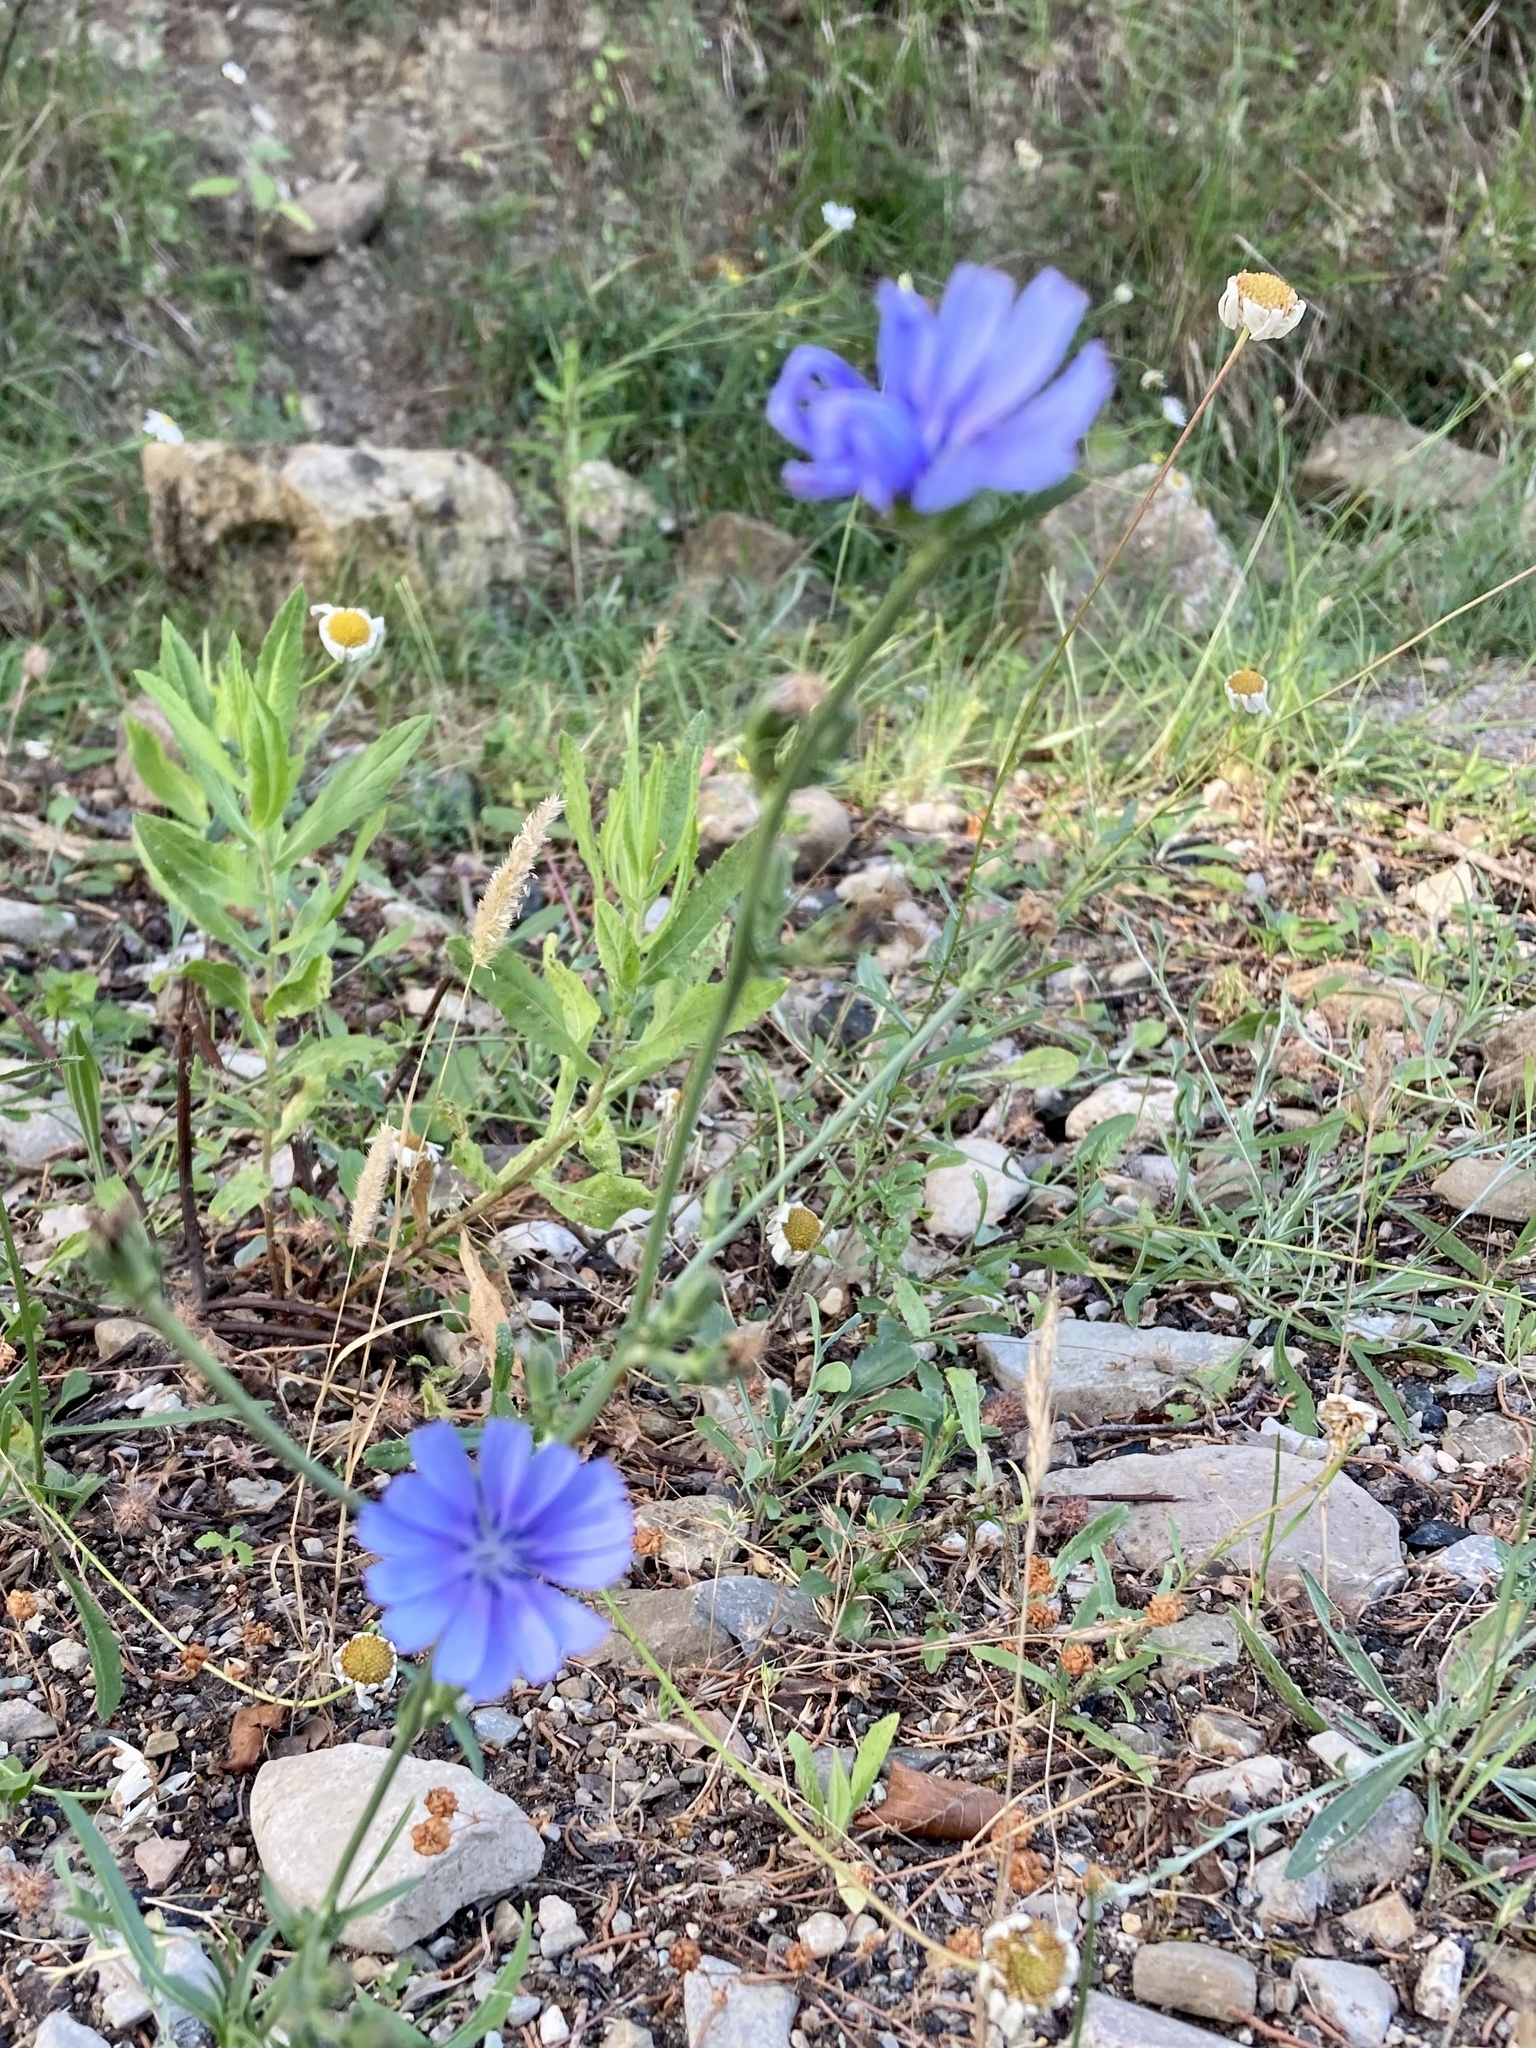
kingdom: Plantae
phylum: Tracheophyta
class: Magnoliopsida
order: Asterales
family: Asteraceae
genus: Cichorium
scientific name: Cichorium intybus
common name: Chicory
